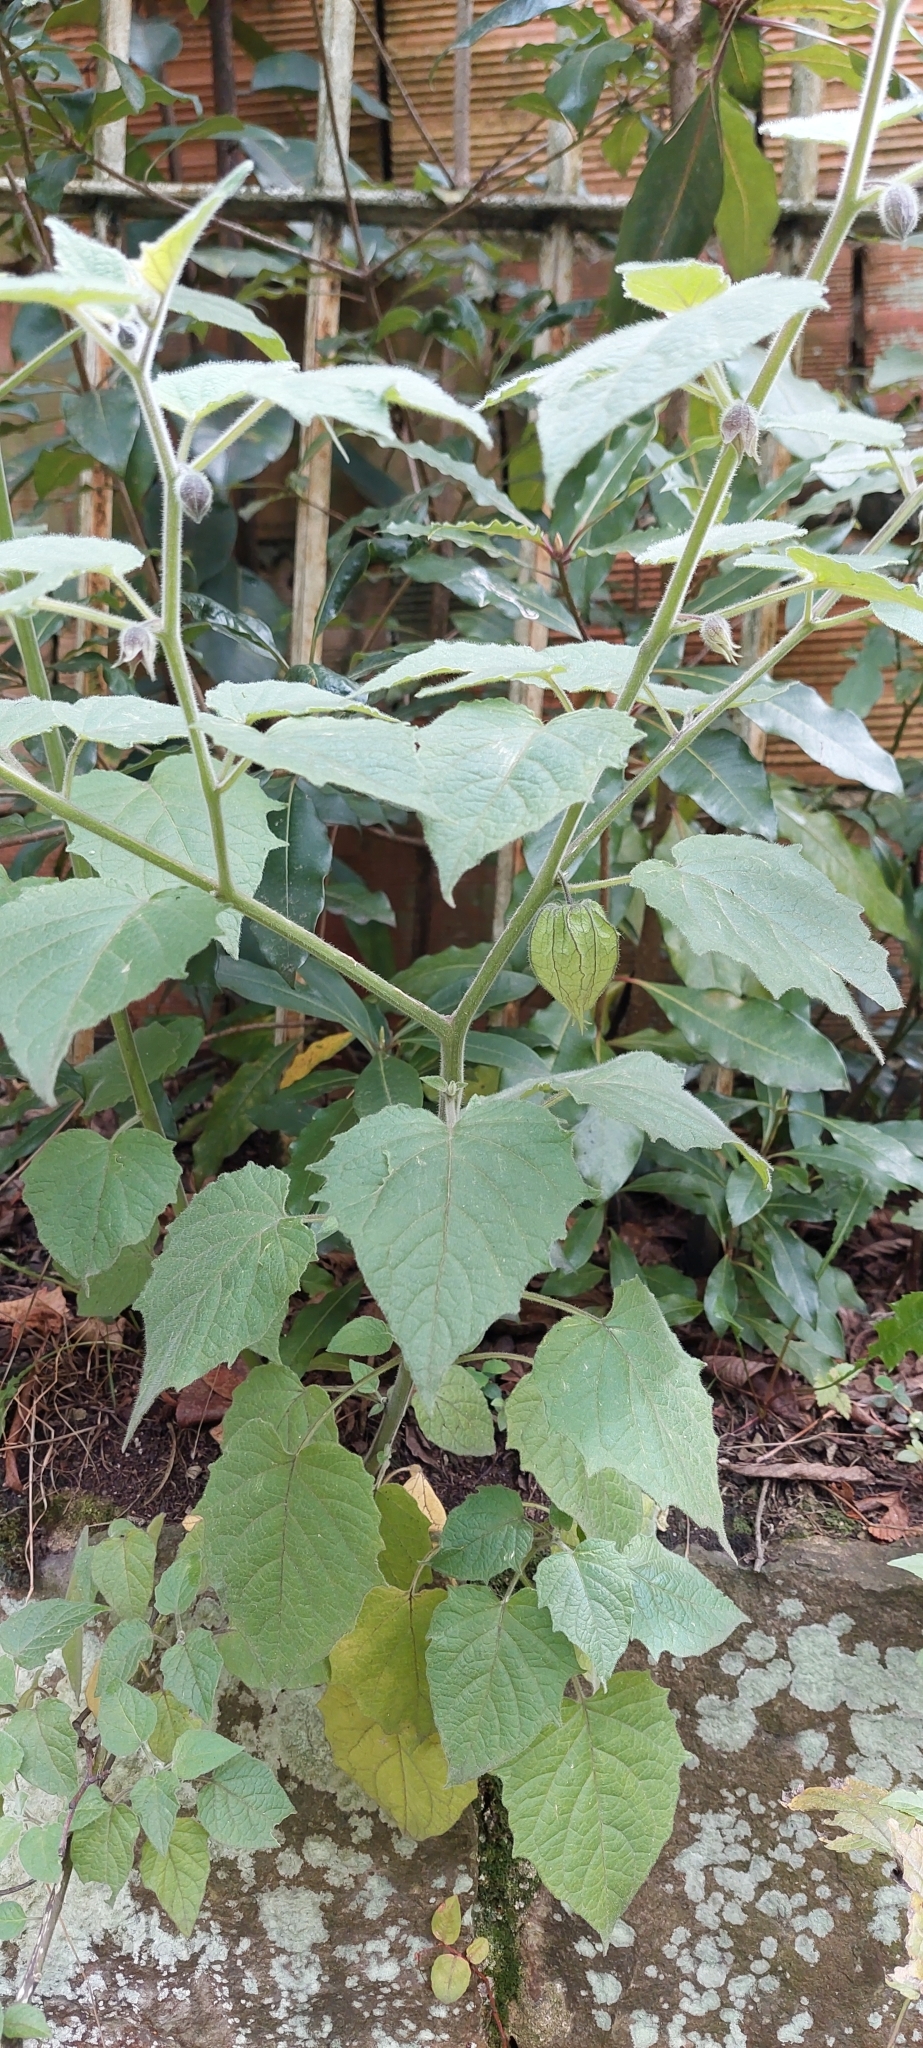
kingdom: Plantae
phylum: Tracheophyta
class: Magnoliopsida
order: Solanales
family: Solanaceae
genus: Physalis
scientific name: Physalis peruviana
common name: Cape-gooseberry
